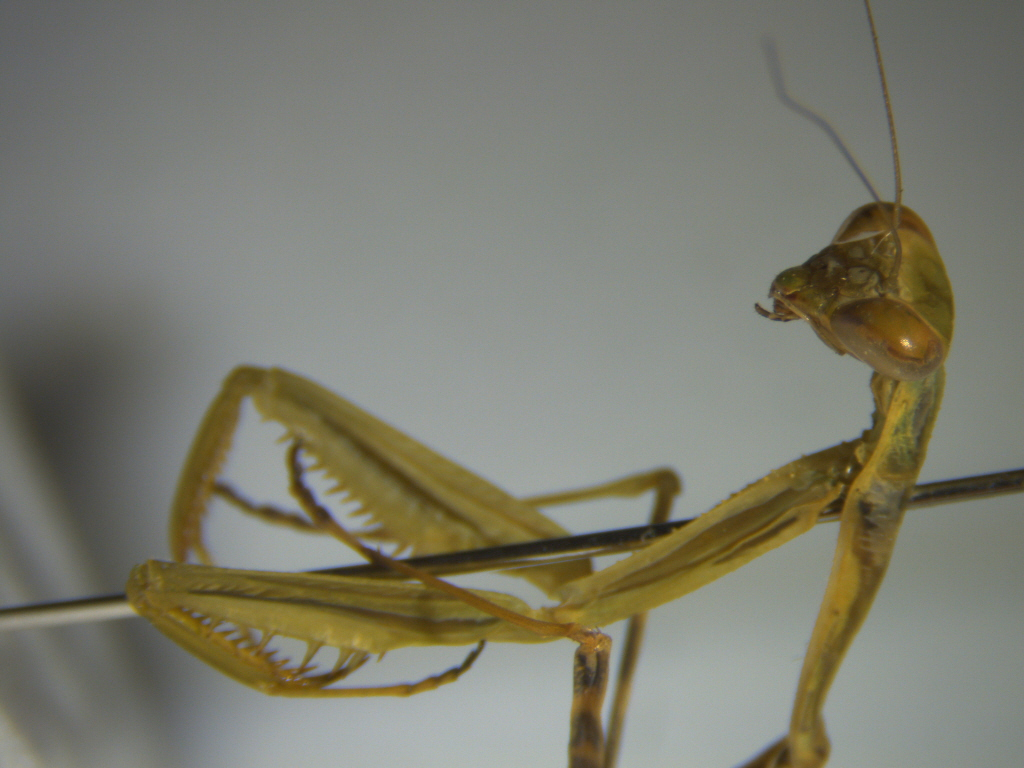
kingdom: Animalia
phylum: Arthropoda
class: Insecta
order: Mantodea
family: Miomantidae
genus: Miomantis
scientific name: Miomantis caffra
